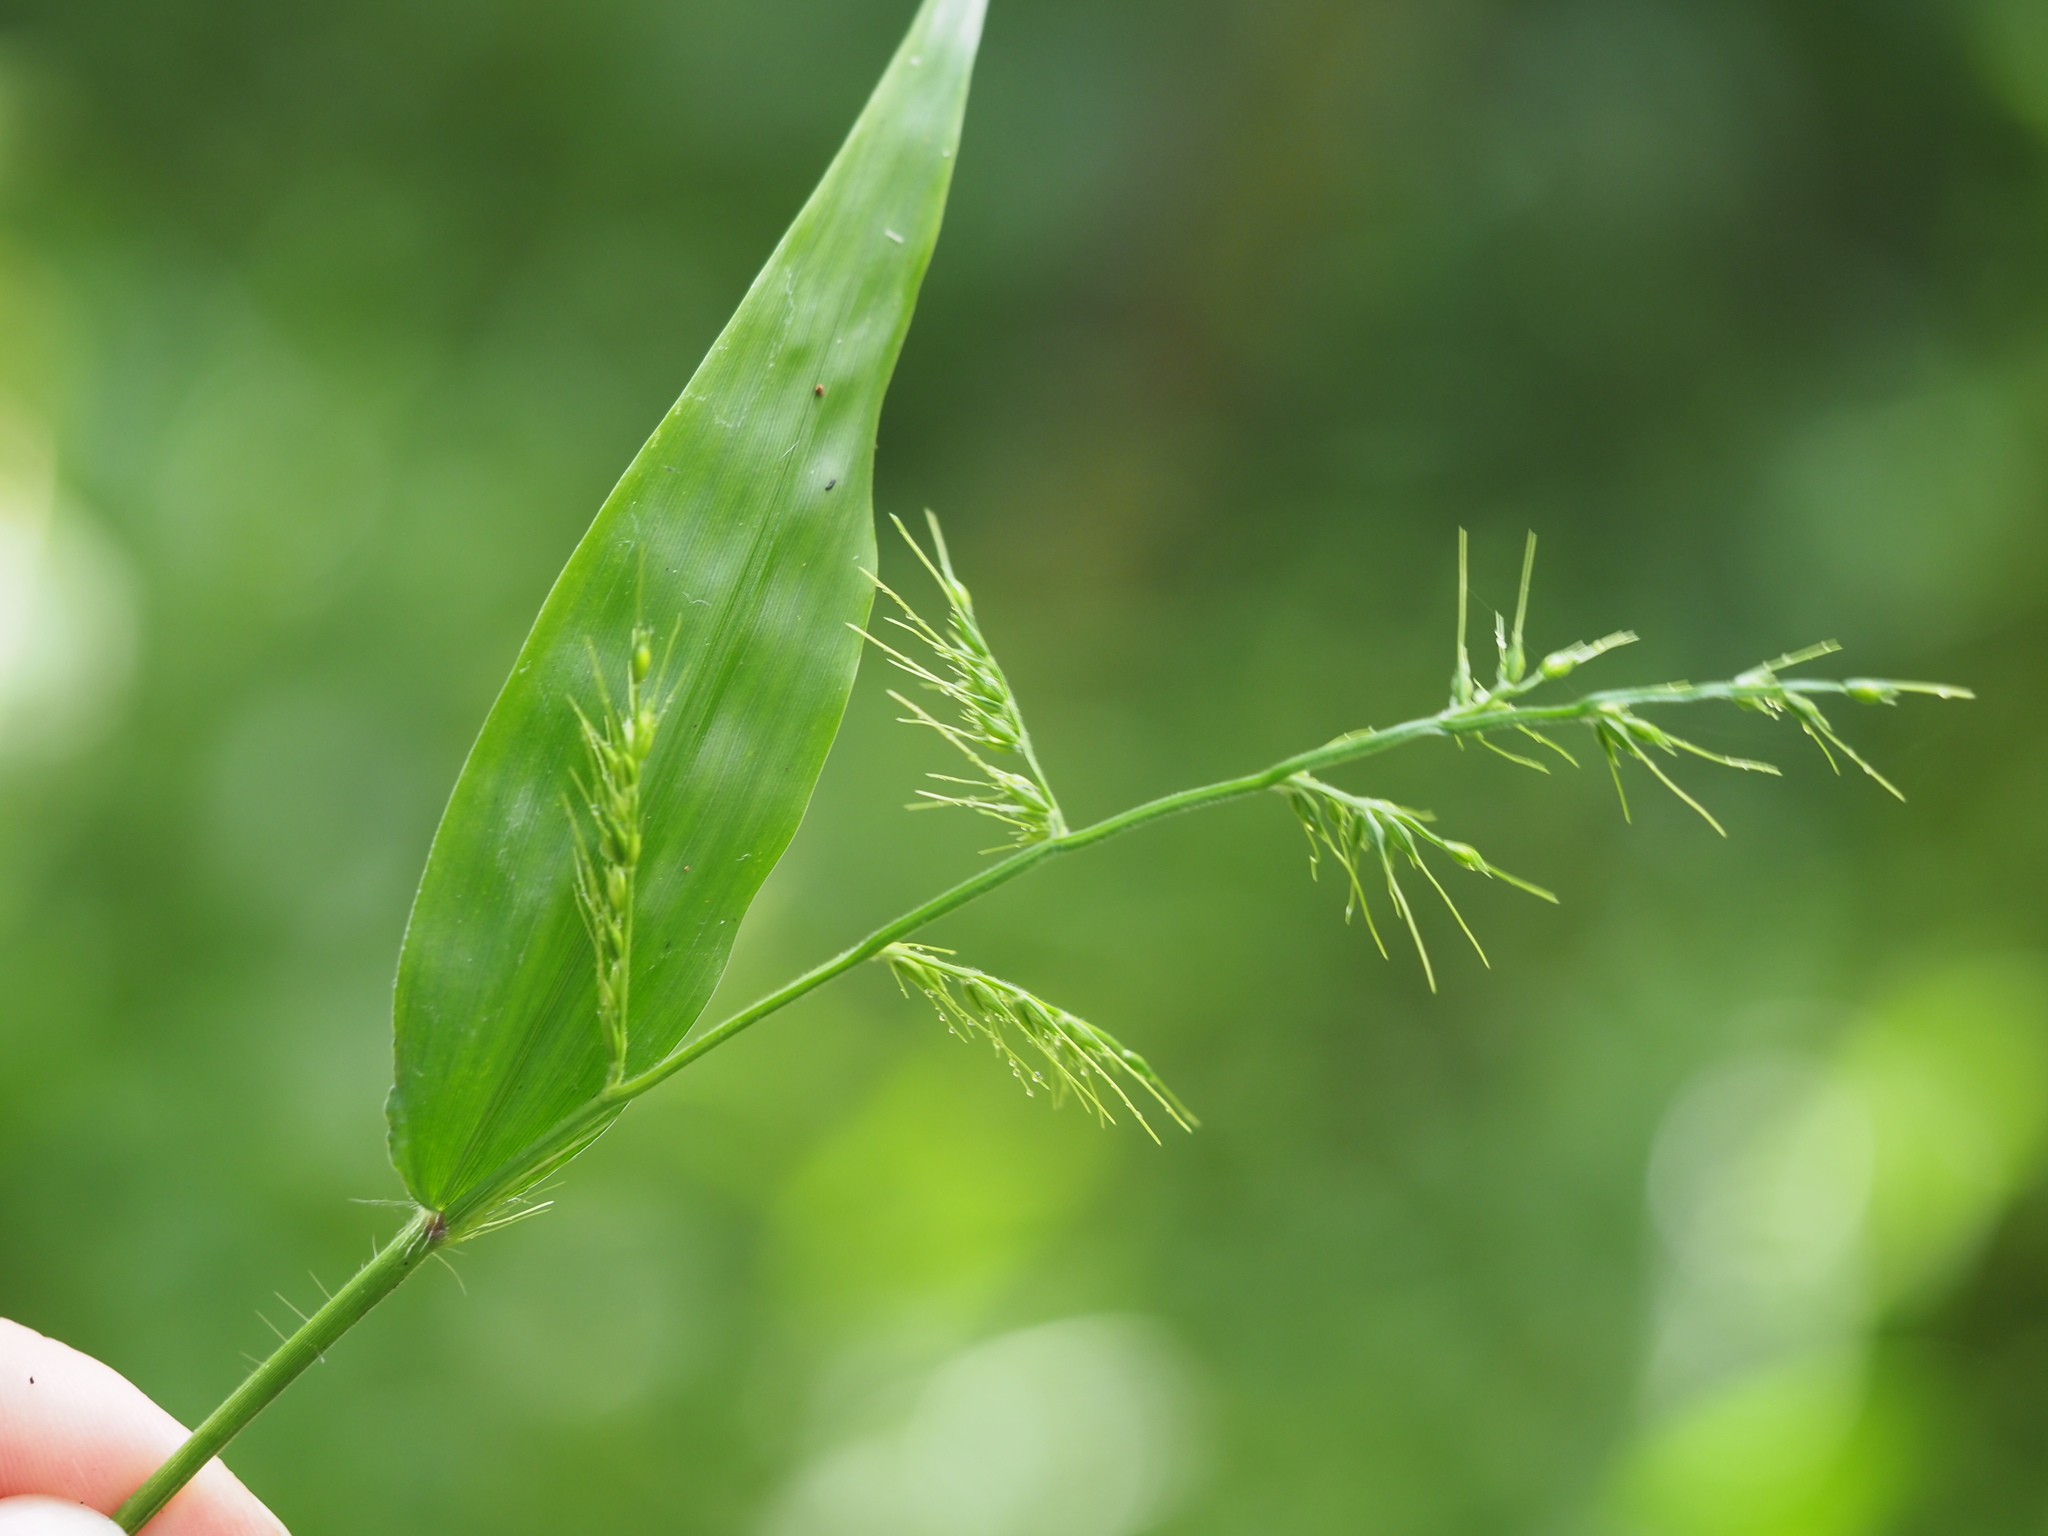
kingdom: Plantae
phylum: Tracheophyta
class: Liliopsida
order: Poales
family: Poaceae
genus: Oplismenus
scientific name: Oplismenus hirtellus
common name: Basketgrass
